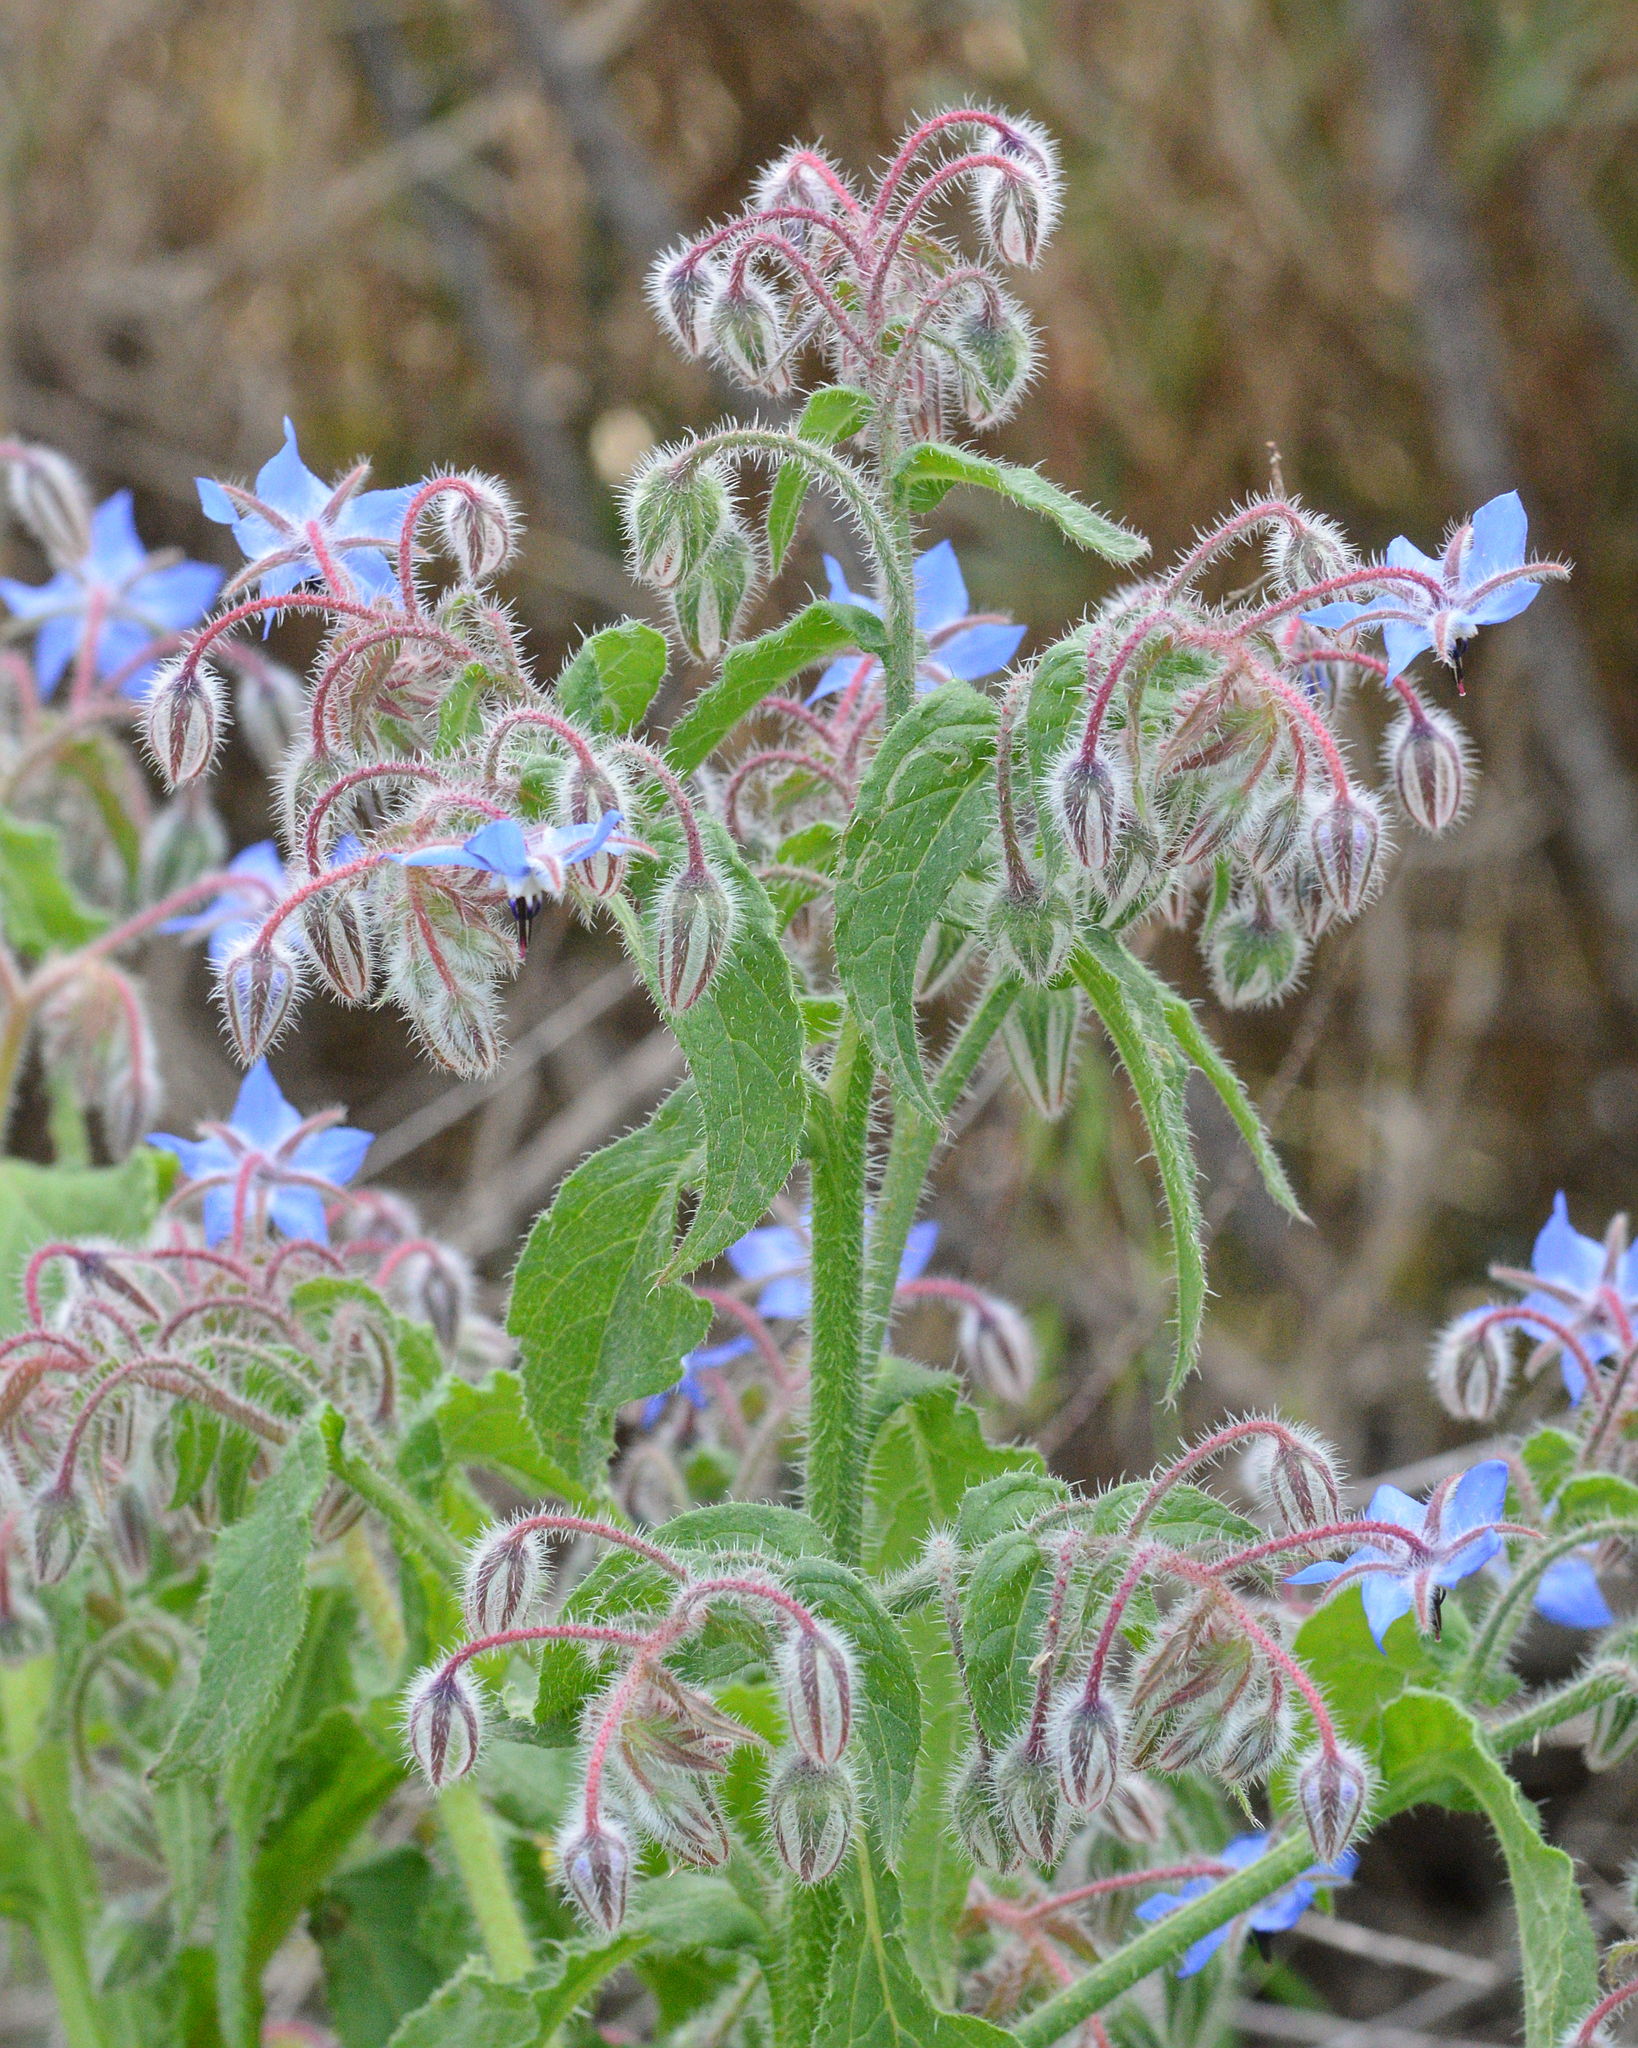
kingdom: Plantae
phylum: Tracheophyta
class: Magnoliopsida
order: Boraginales
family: Boraginaceae
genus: Borago
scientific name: Borago officinalis
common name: Borage
